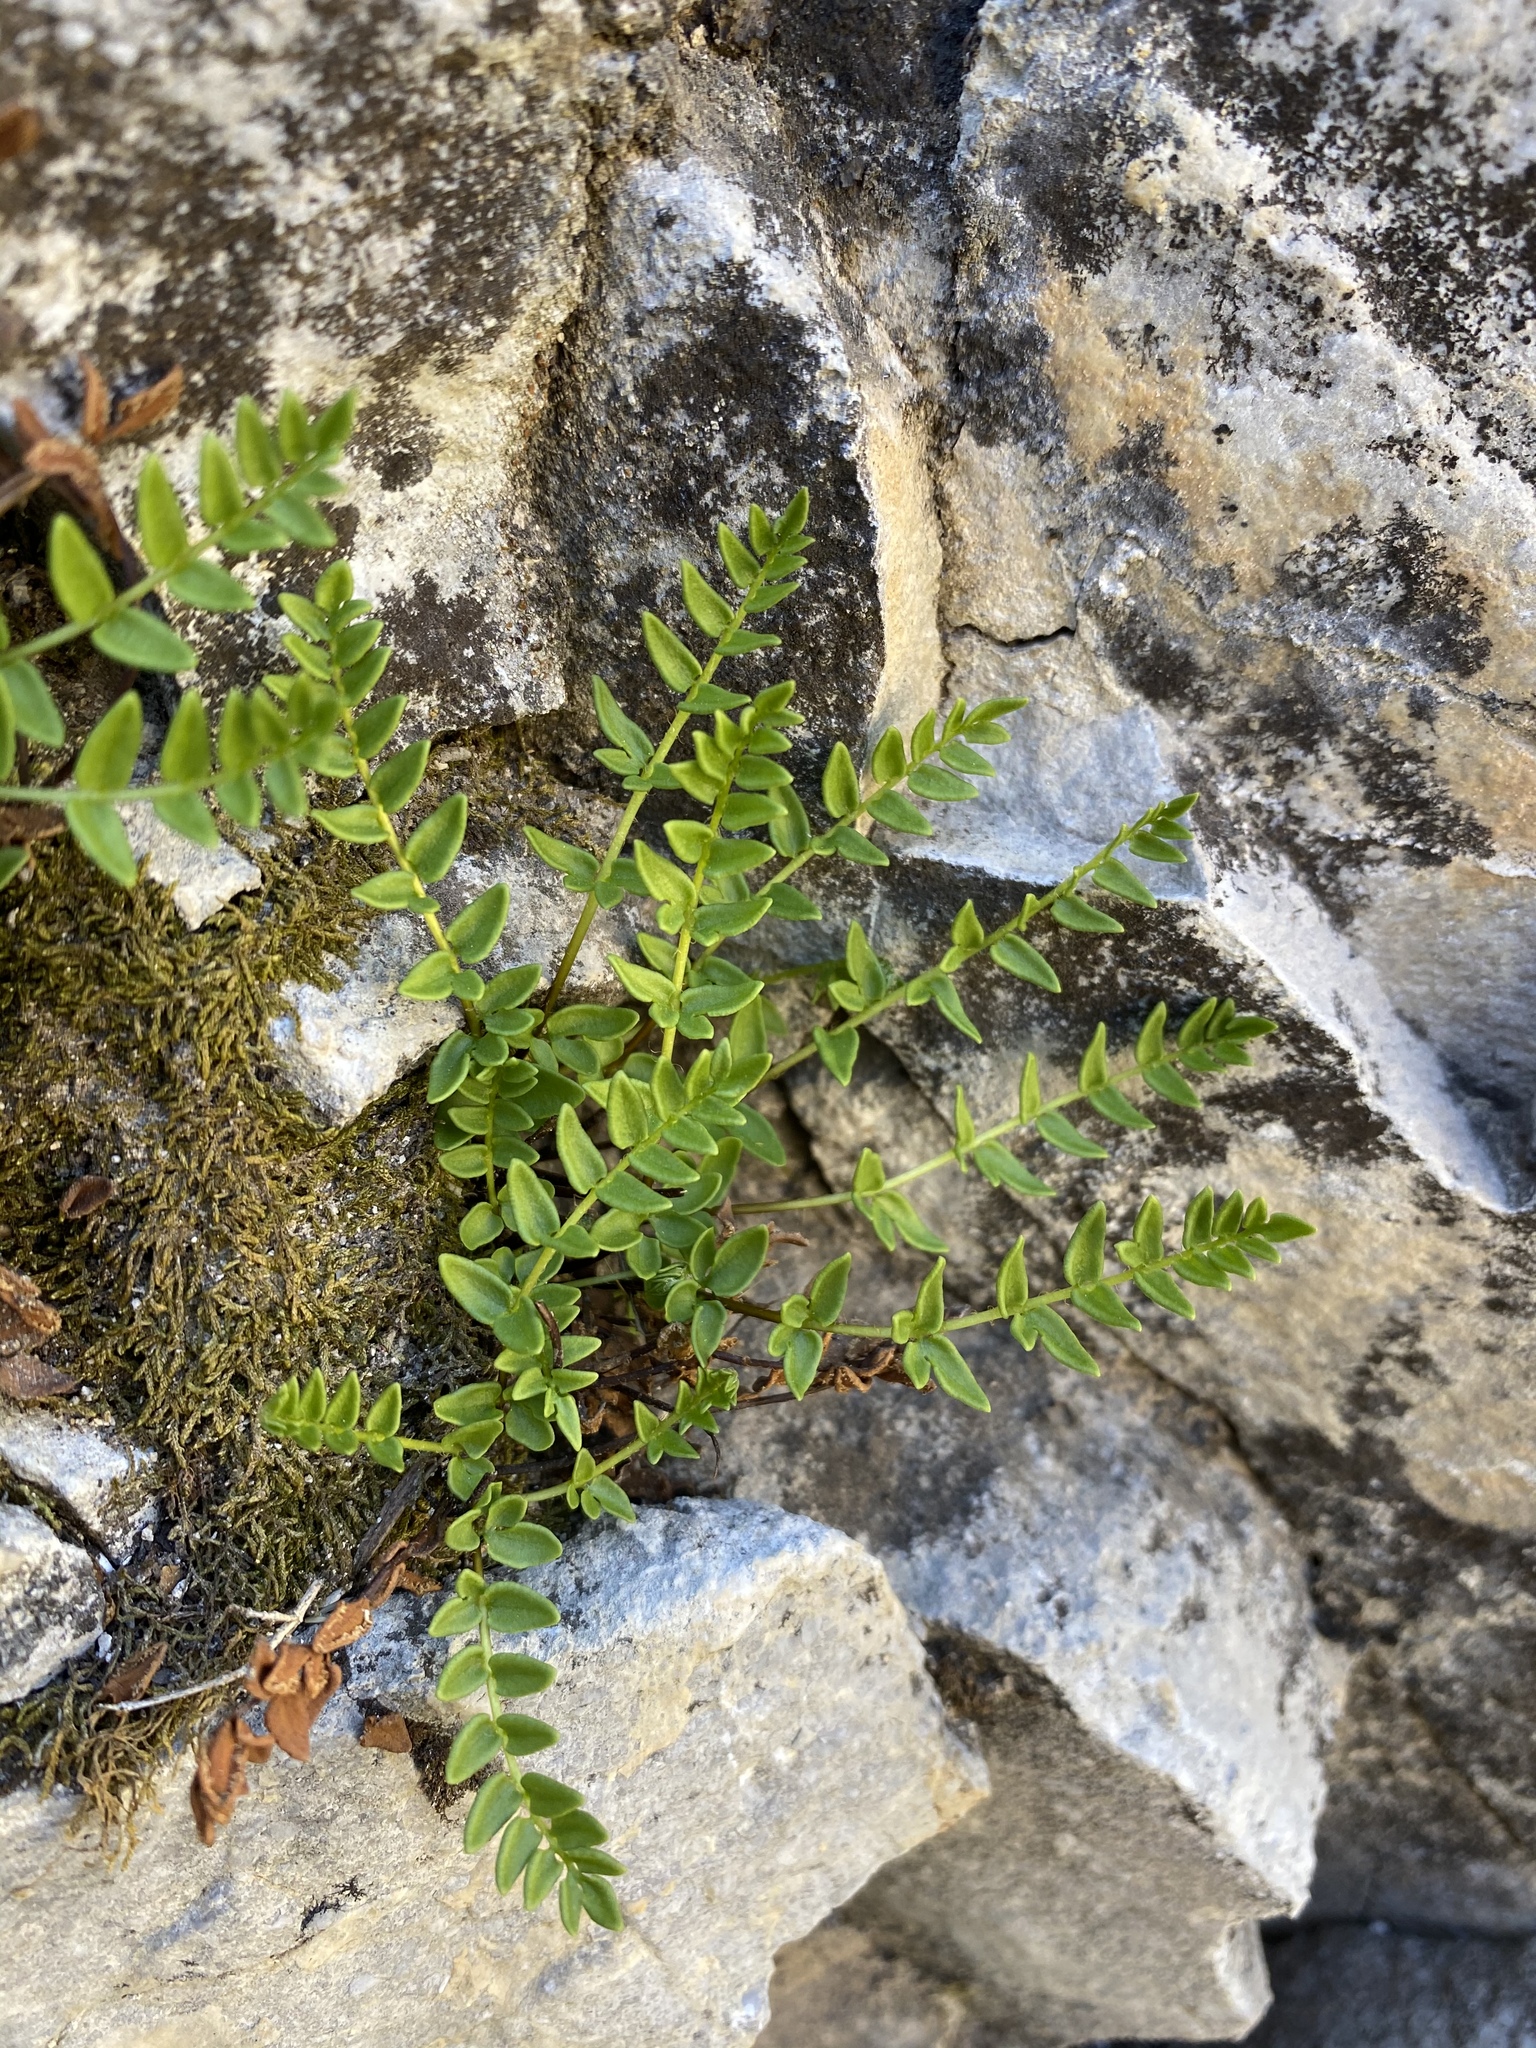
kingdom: Plantae
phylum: Tracheophyta
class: Polypodiopsida
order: Polypodiales
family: Pteridaceae
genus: Pellaea
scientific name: Pellaea breweri
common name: Brewer's cliffbrake
